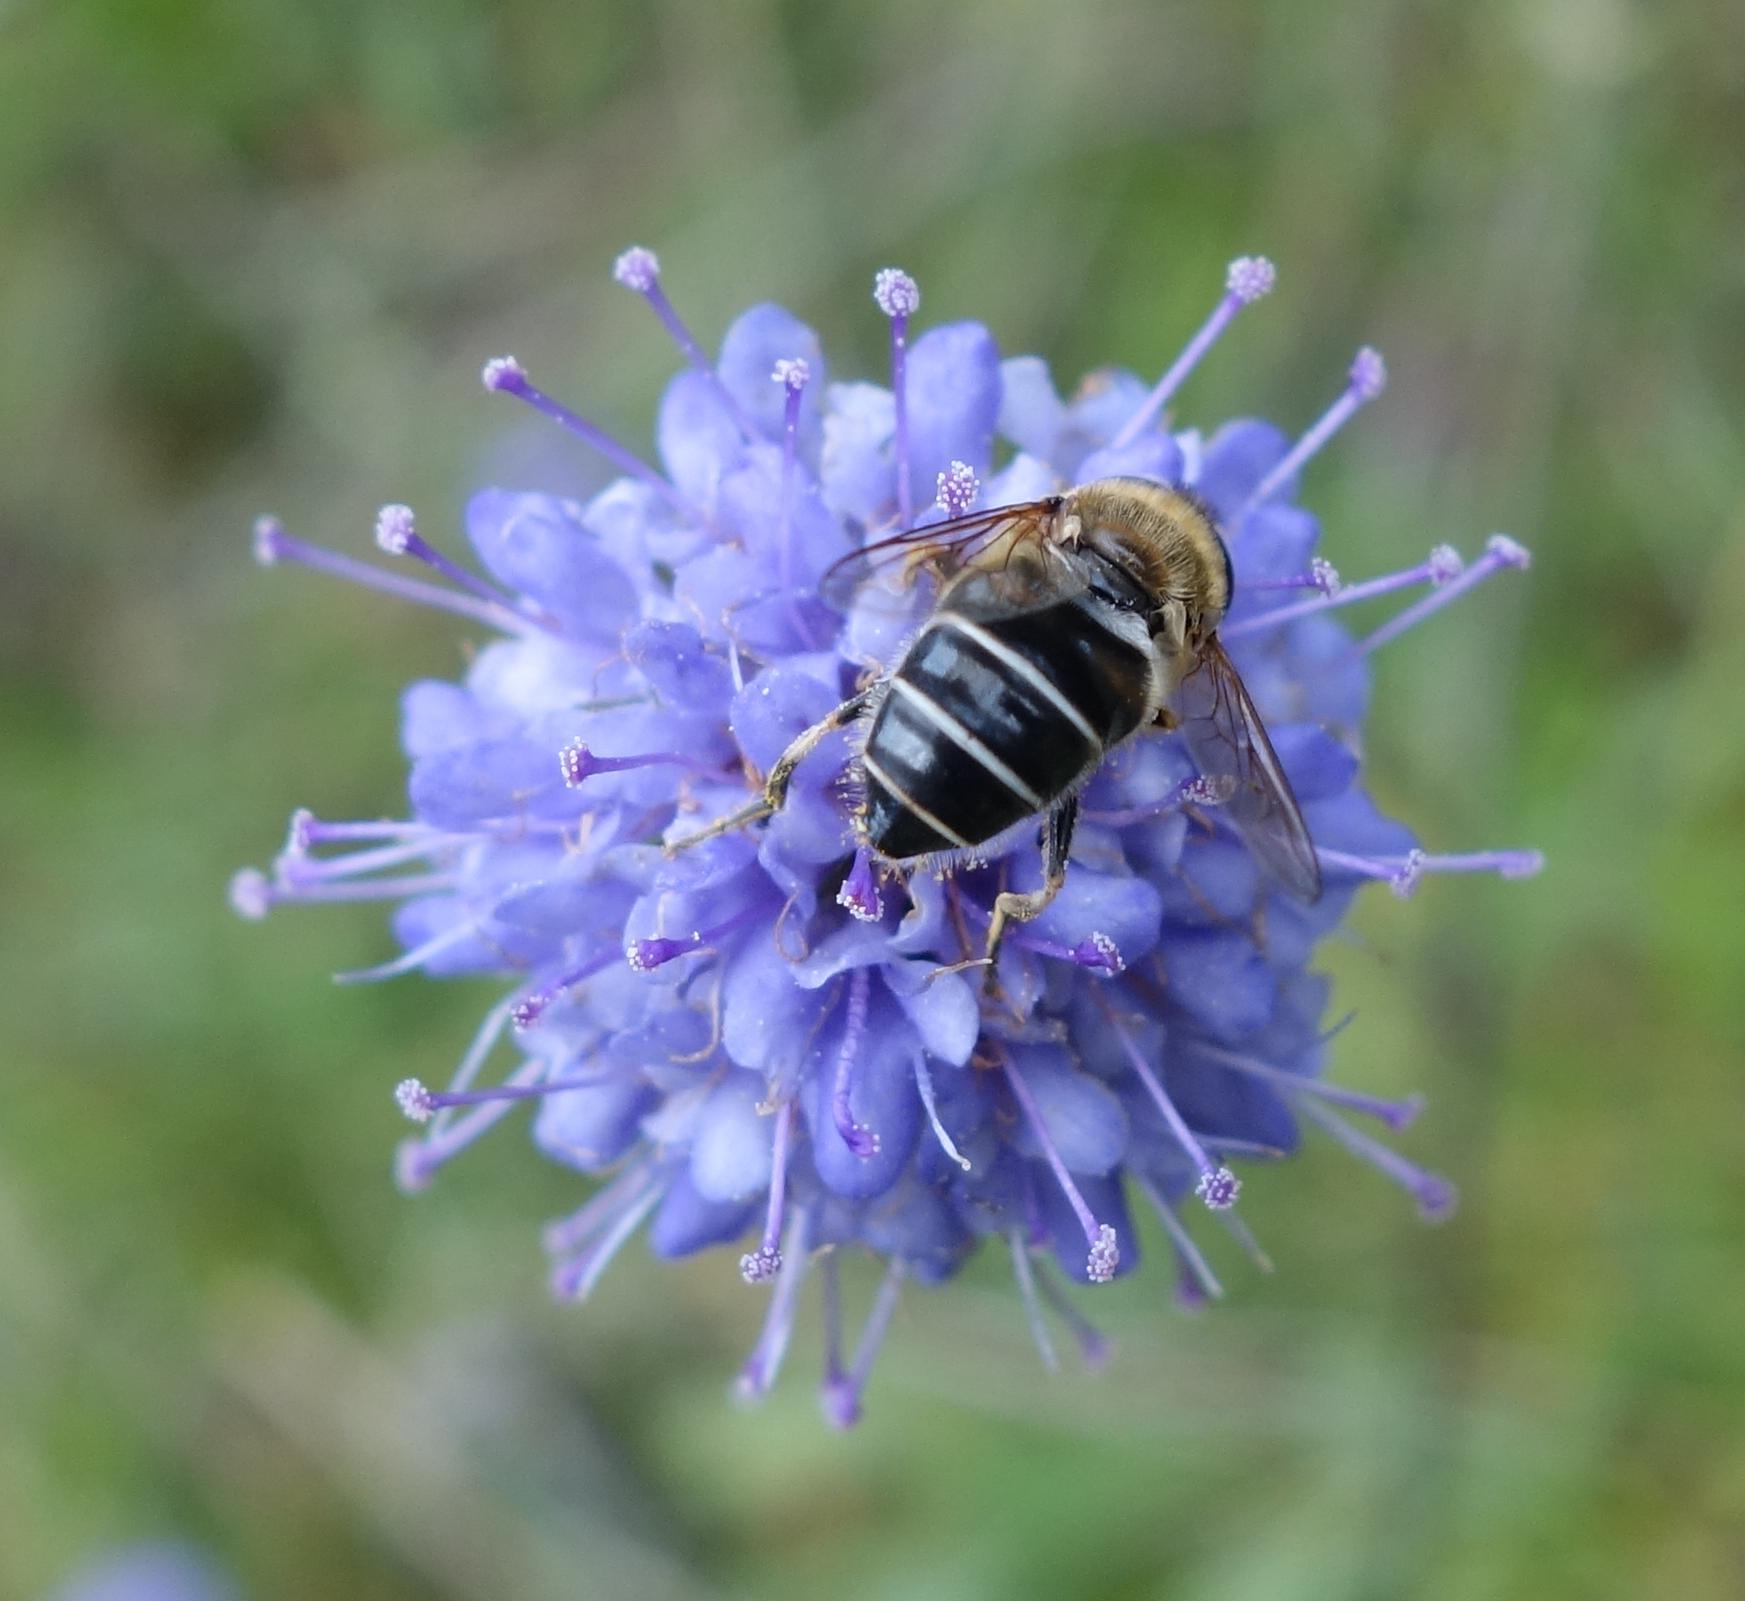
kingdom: Animalia
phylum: Arthropoda
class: Insecta
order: Diptera
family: Syrphidae
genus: Eristalis
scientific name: Eristalis nemorum
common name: Orange-spined drone fly
